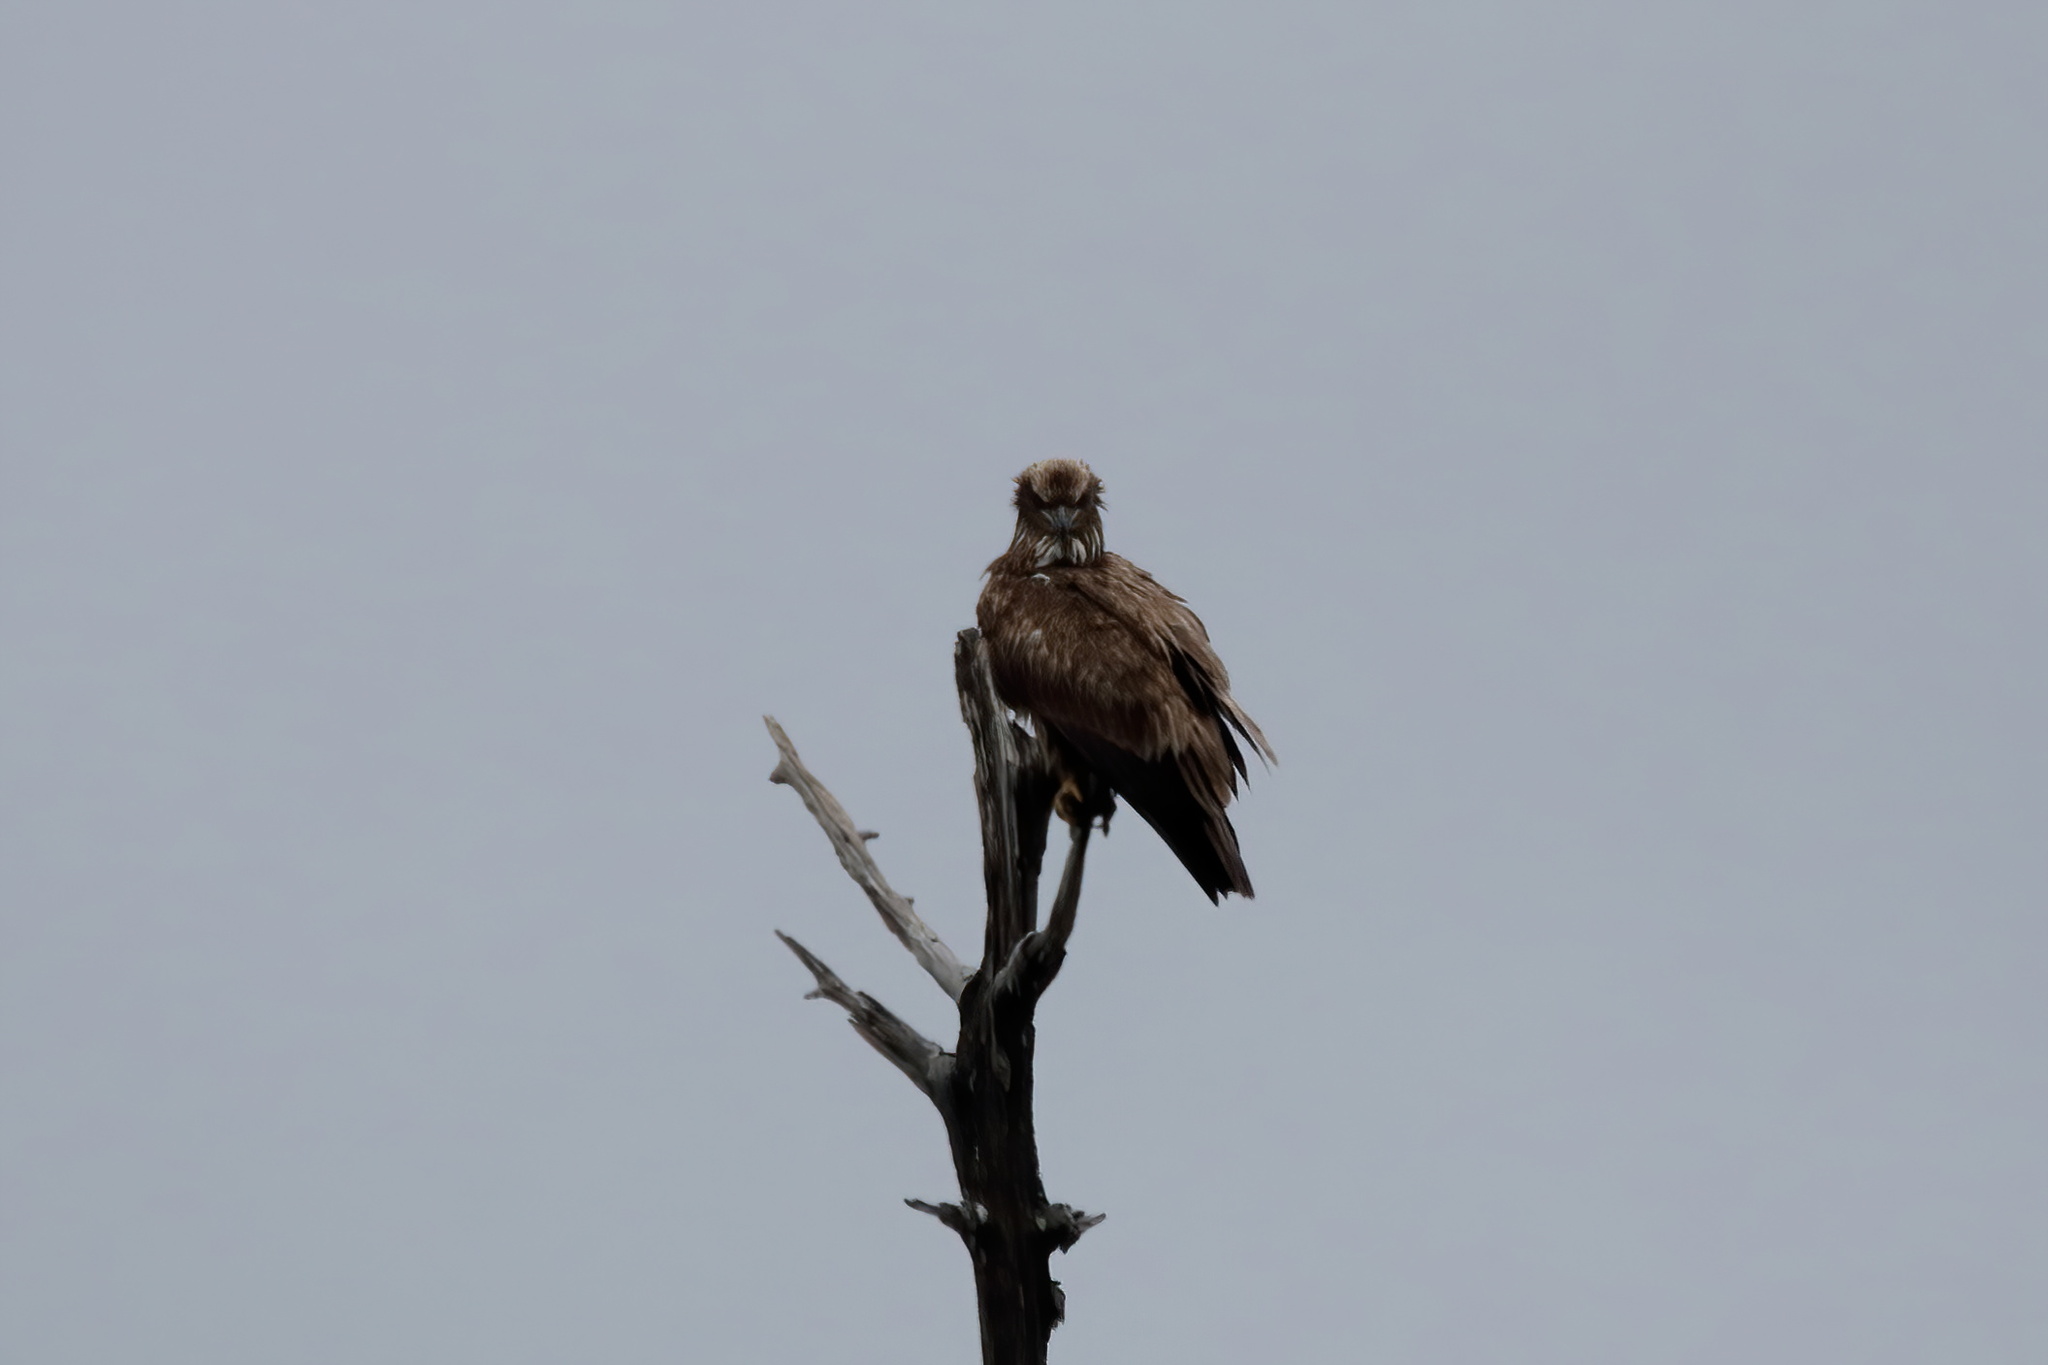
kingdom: Animalia
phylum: Chordata
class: Aves
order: Accipitriformes
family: Accipitridae
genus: Haliaeetus
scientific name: Haliaeetus leucocephalus
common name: Bald eagle
